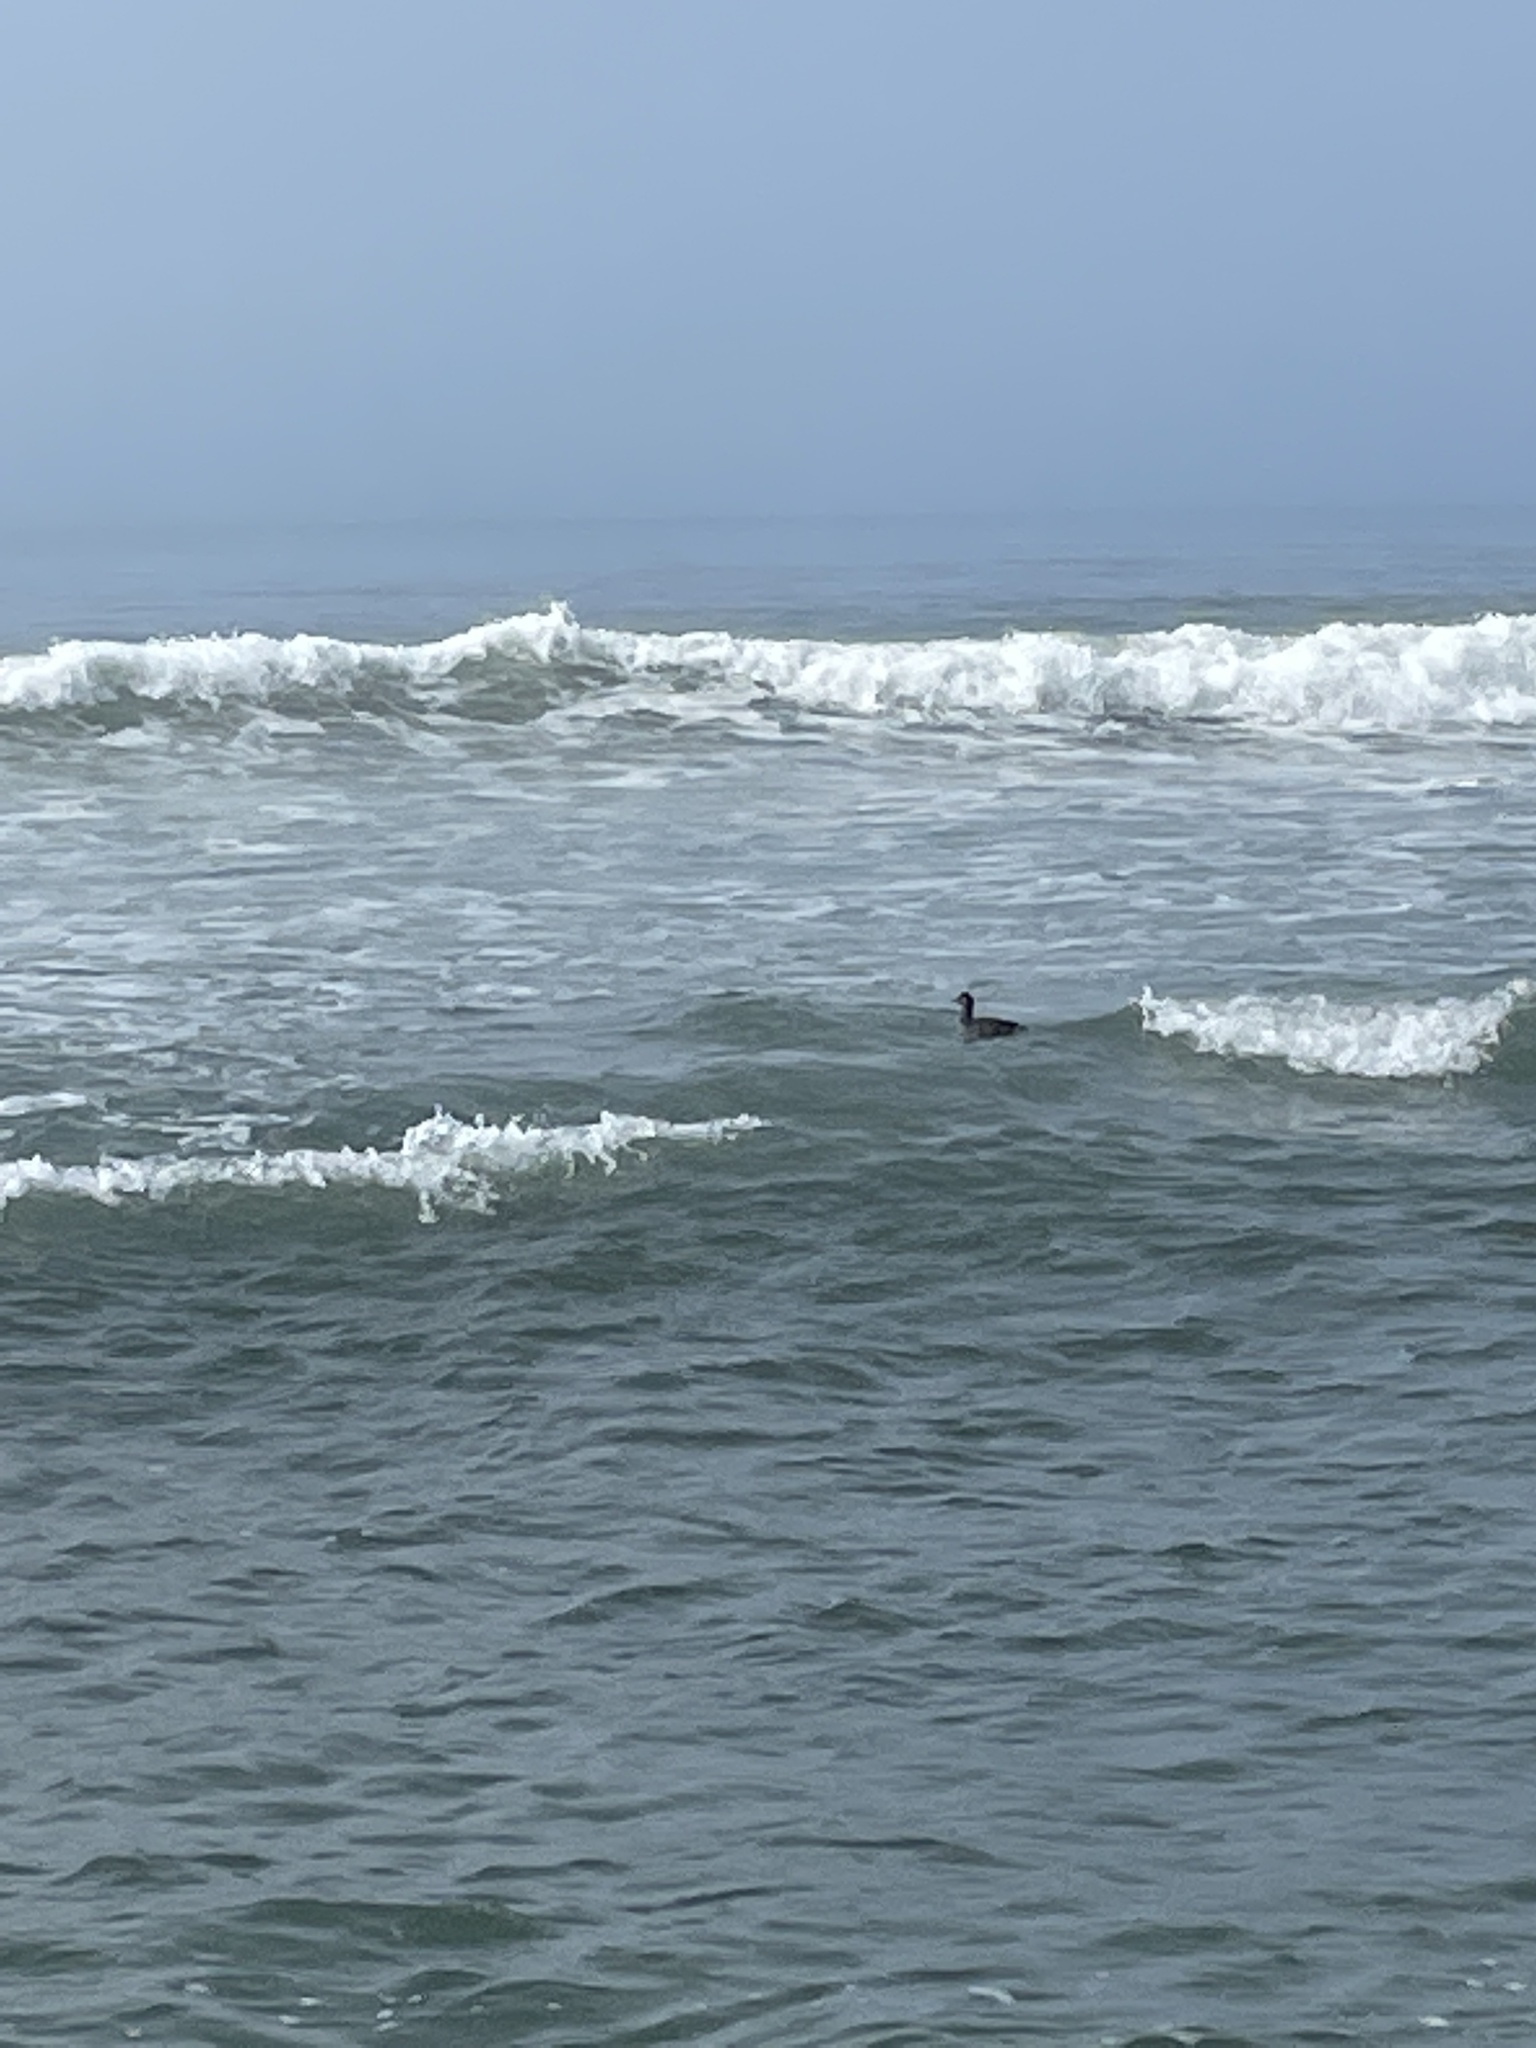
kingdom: Animalia
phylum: Chordata
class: Aves
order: Anseriformes
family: Anatidae
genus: Melanitta
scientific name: Melanitta perspicillata
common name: Surf scoter
